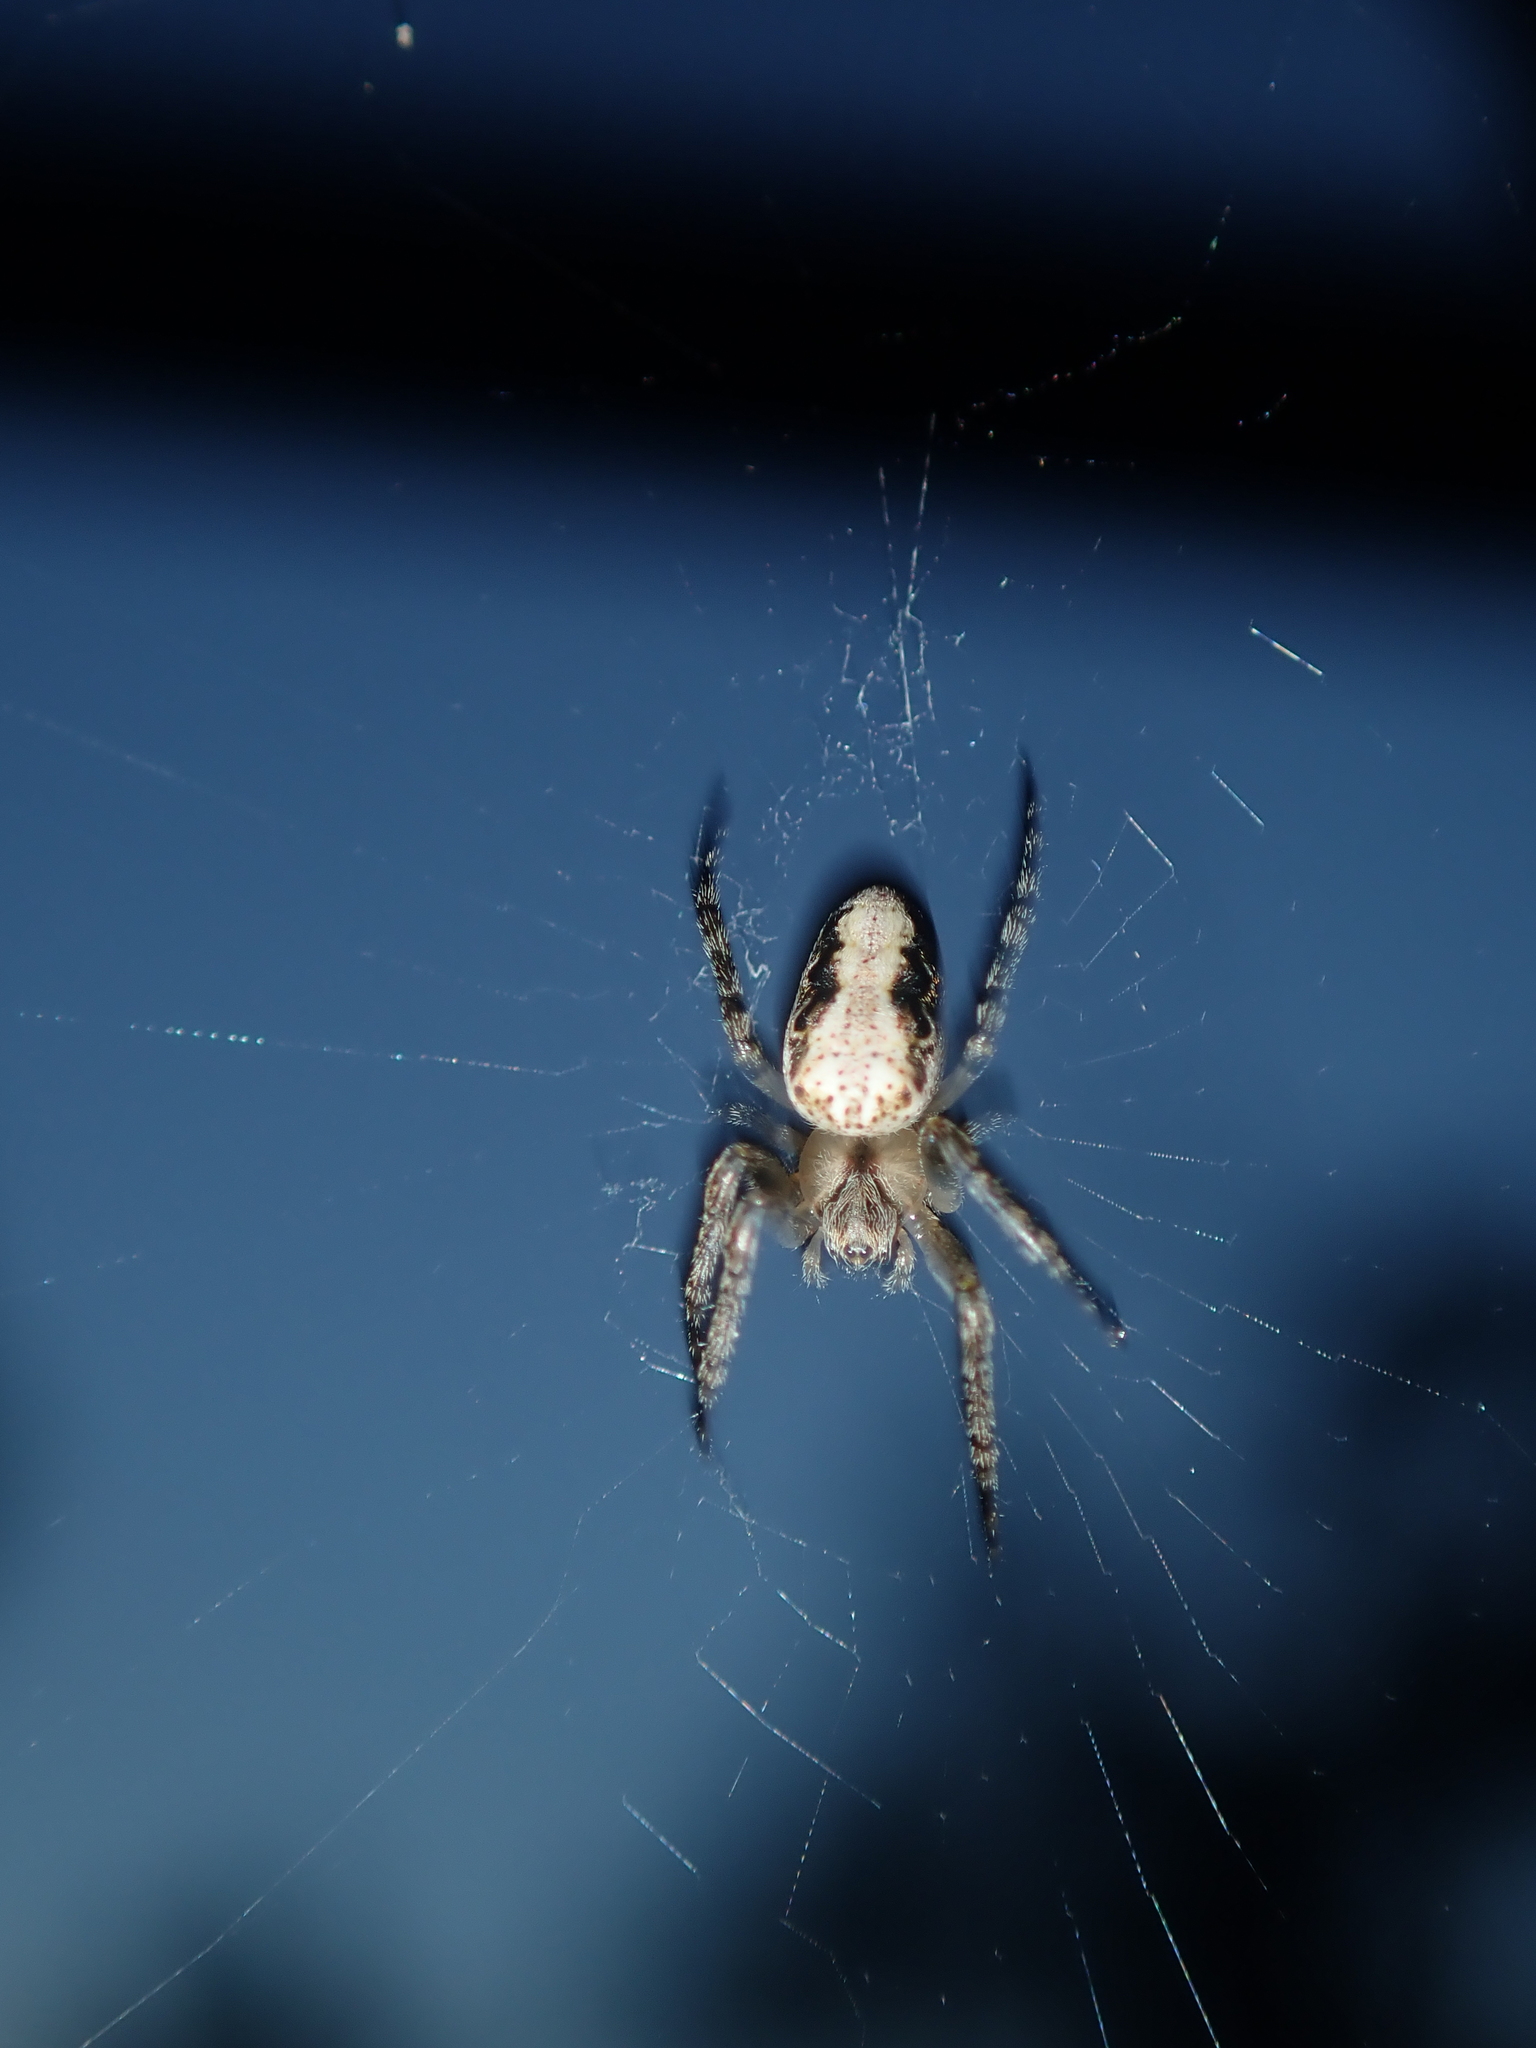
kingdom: Animalia
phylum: Arthropoda
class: Arachnida
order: Araneae
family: Araneidae
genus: Plebs
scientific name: Plebs cyphoxis
